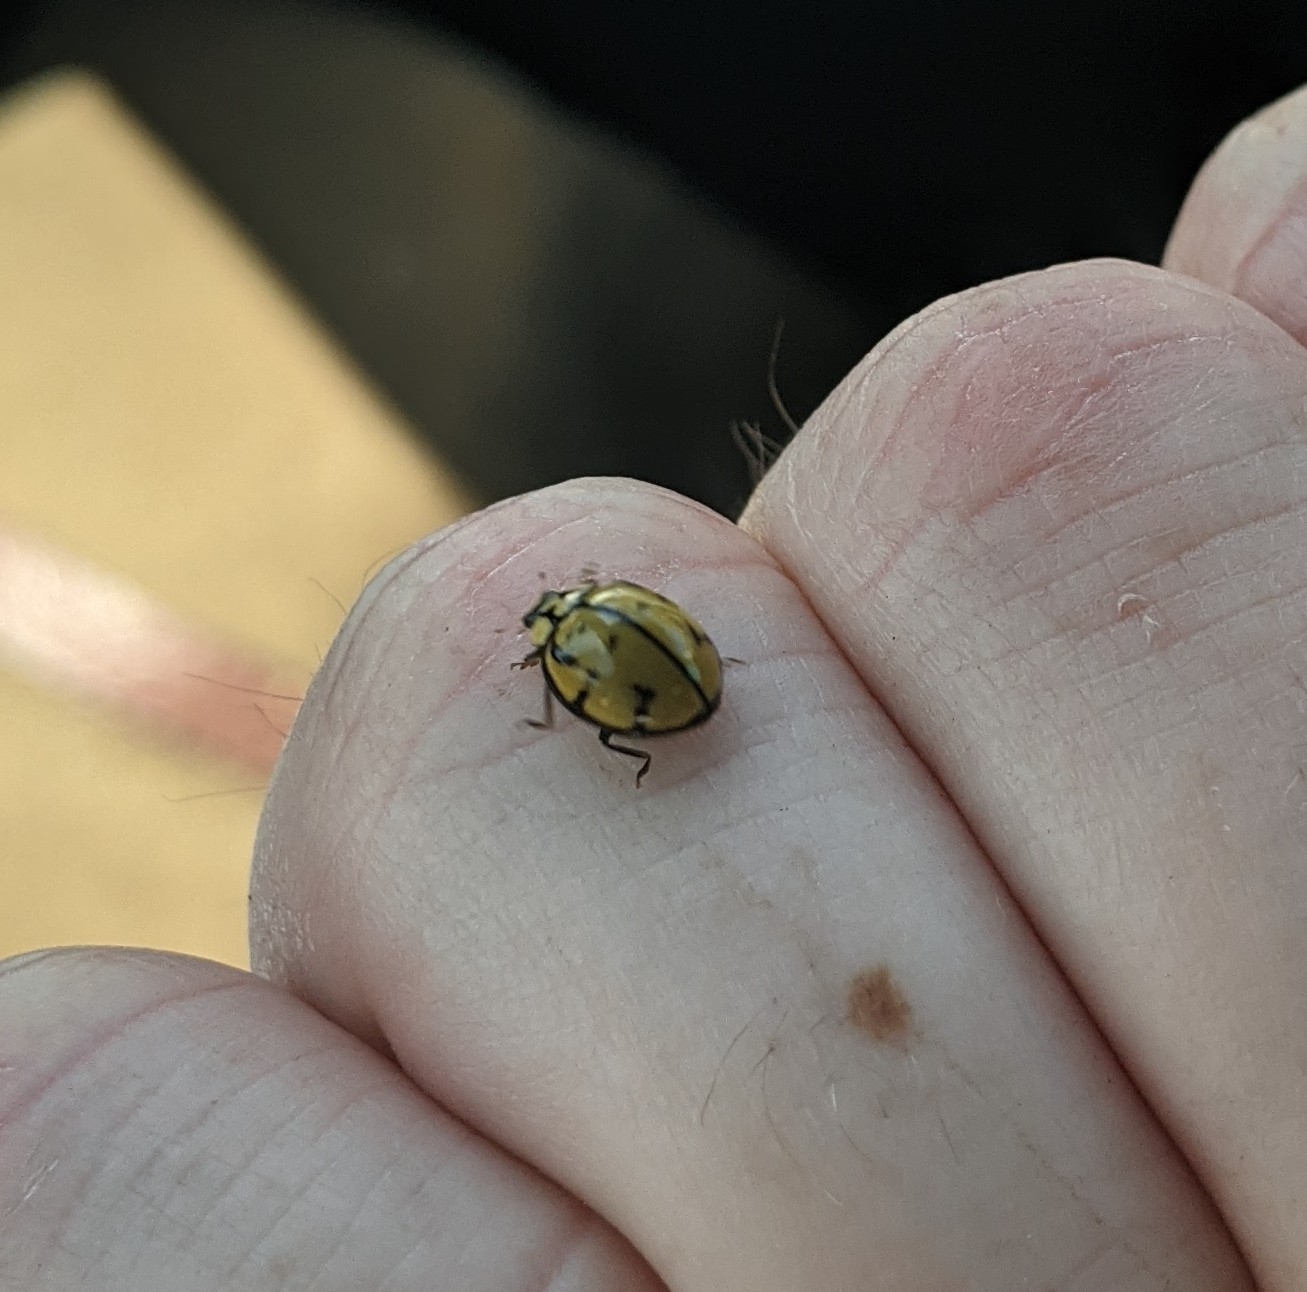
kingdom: Animalia
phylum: Arthropoda
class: Insecta
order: Coleoptera
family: Coccinellidae
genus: Harmonia
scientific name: Harmonia
